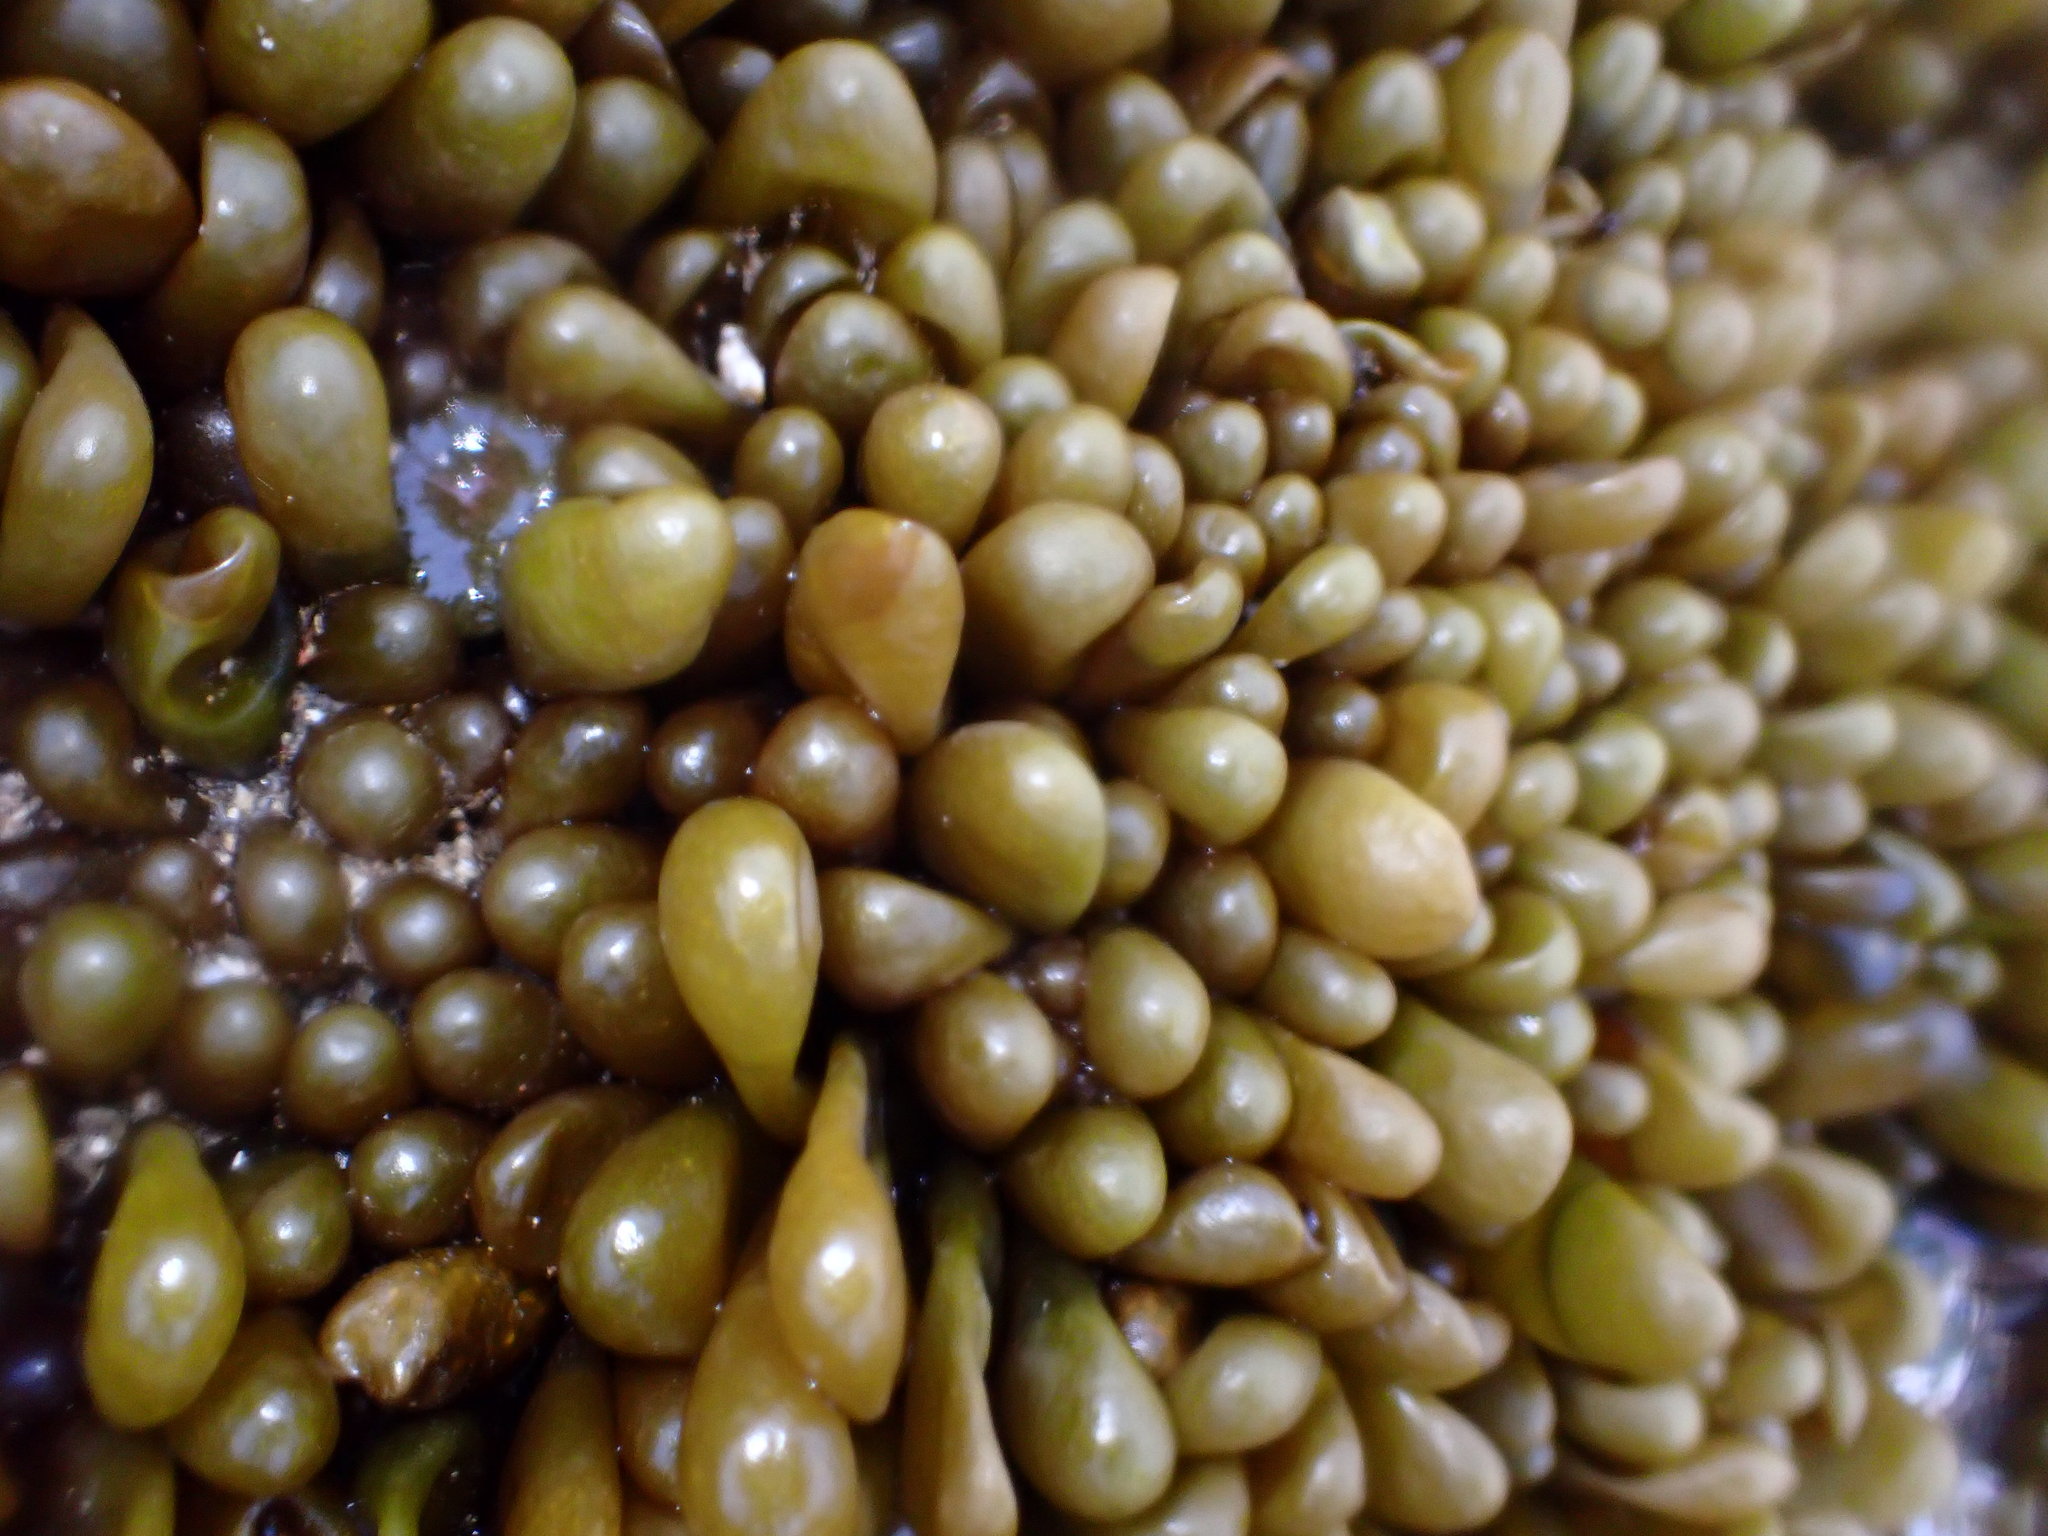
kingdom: Plantae
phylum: Rhodophyta
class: Florideophyceae
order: Palmariales
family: Palmariaceae
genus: Halosaccion
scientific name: Halosaccion glandiforme
